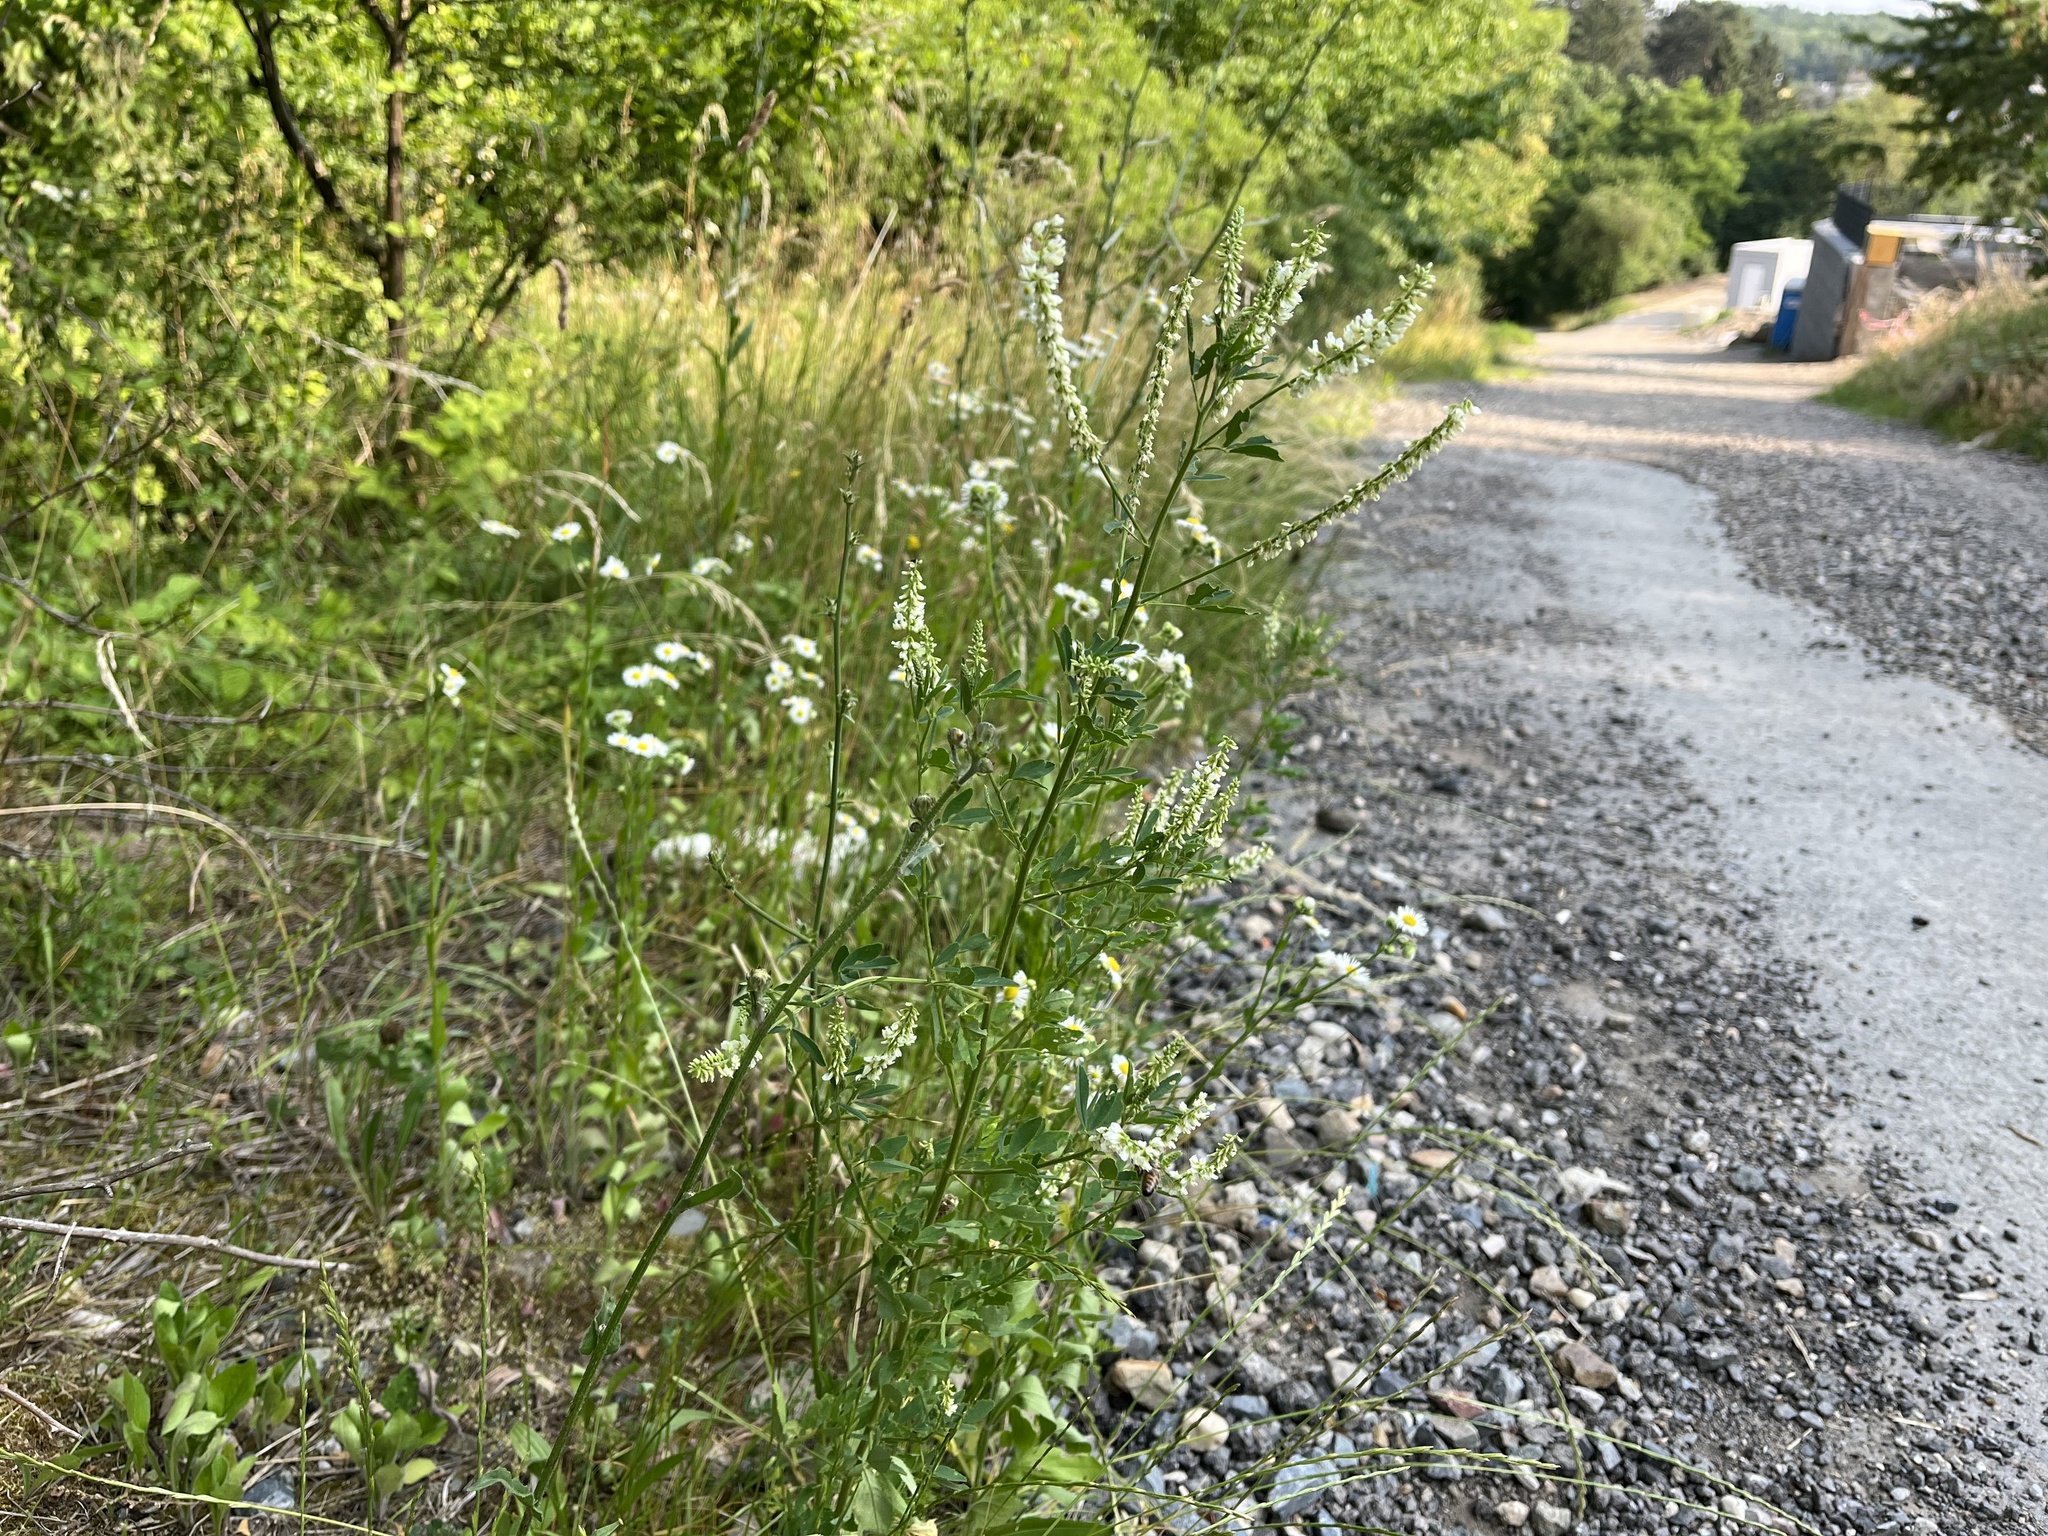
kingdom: Plantae
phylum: Tracheophyta
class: Magnoliopsida
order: Fabales
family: Fabaceae
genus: Melilotus
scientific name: Melilotus albus
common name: White melilot
